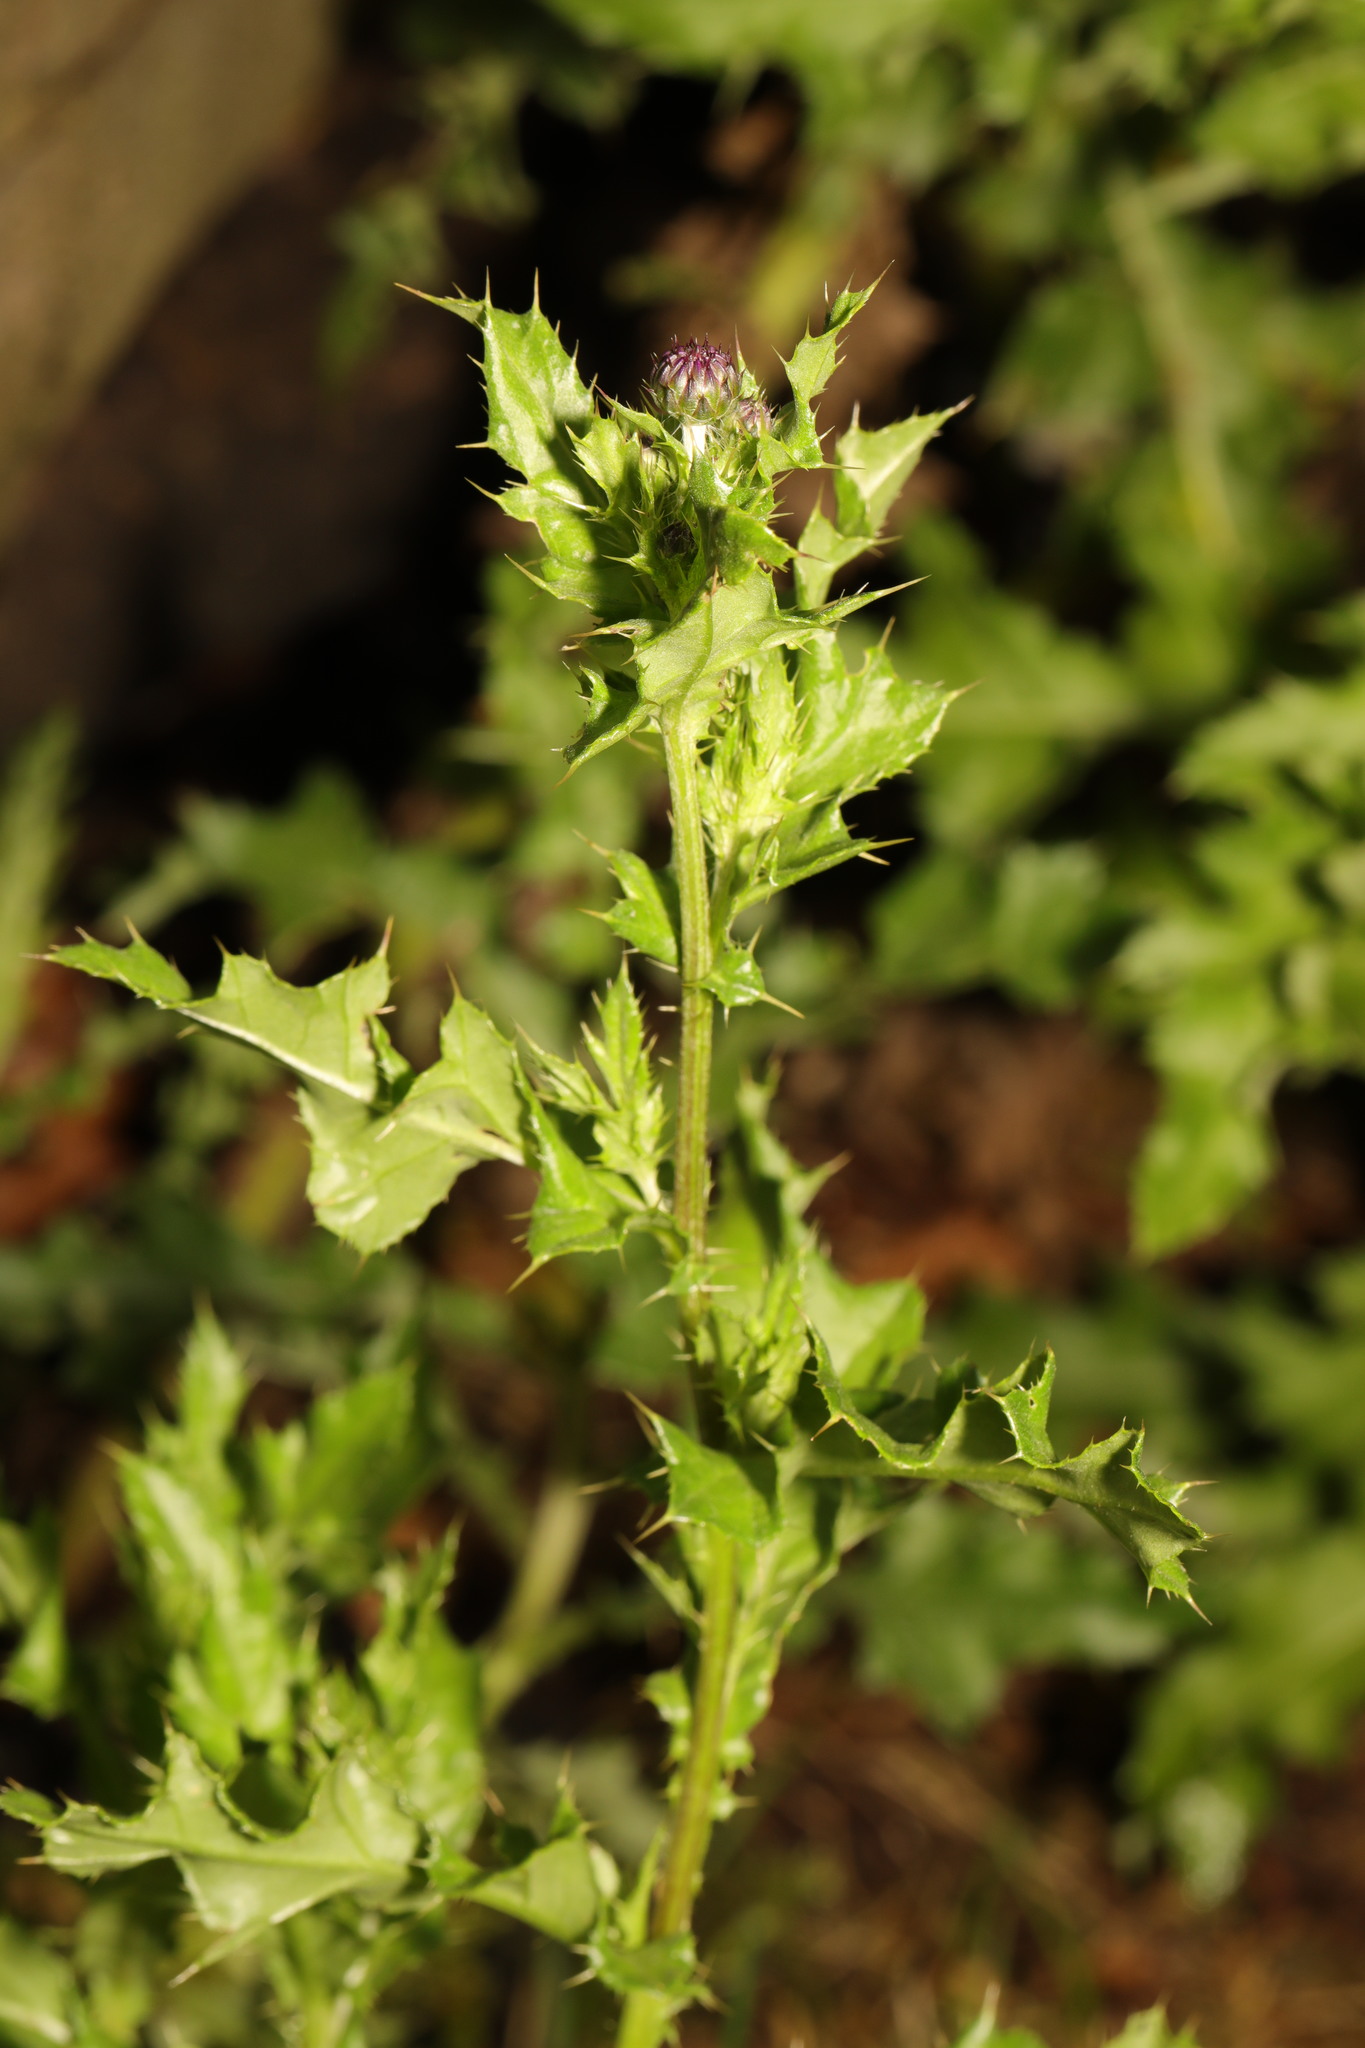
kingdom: Plantae
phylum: Tracheophyta
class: Magnoliopsida
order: Asterales
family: Asteraceae
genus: Cirsium
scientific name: Cirsium arvense
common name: Creeping thistle
